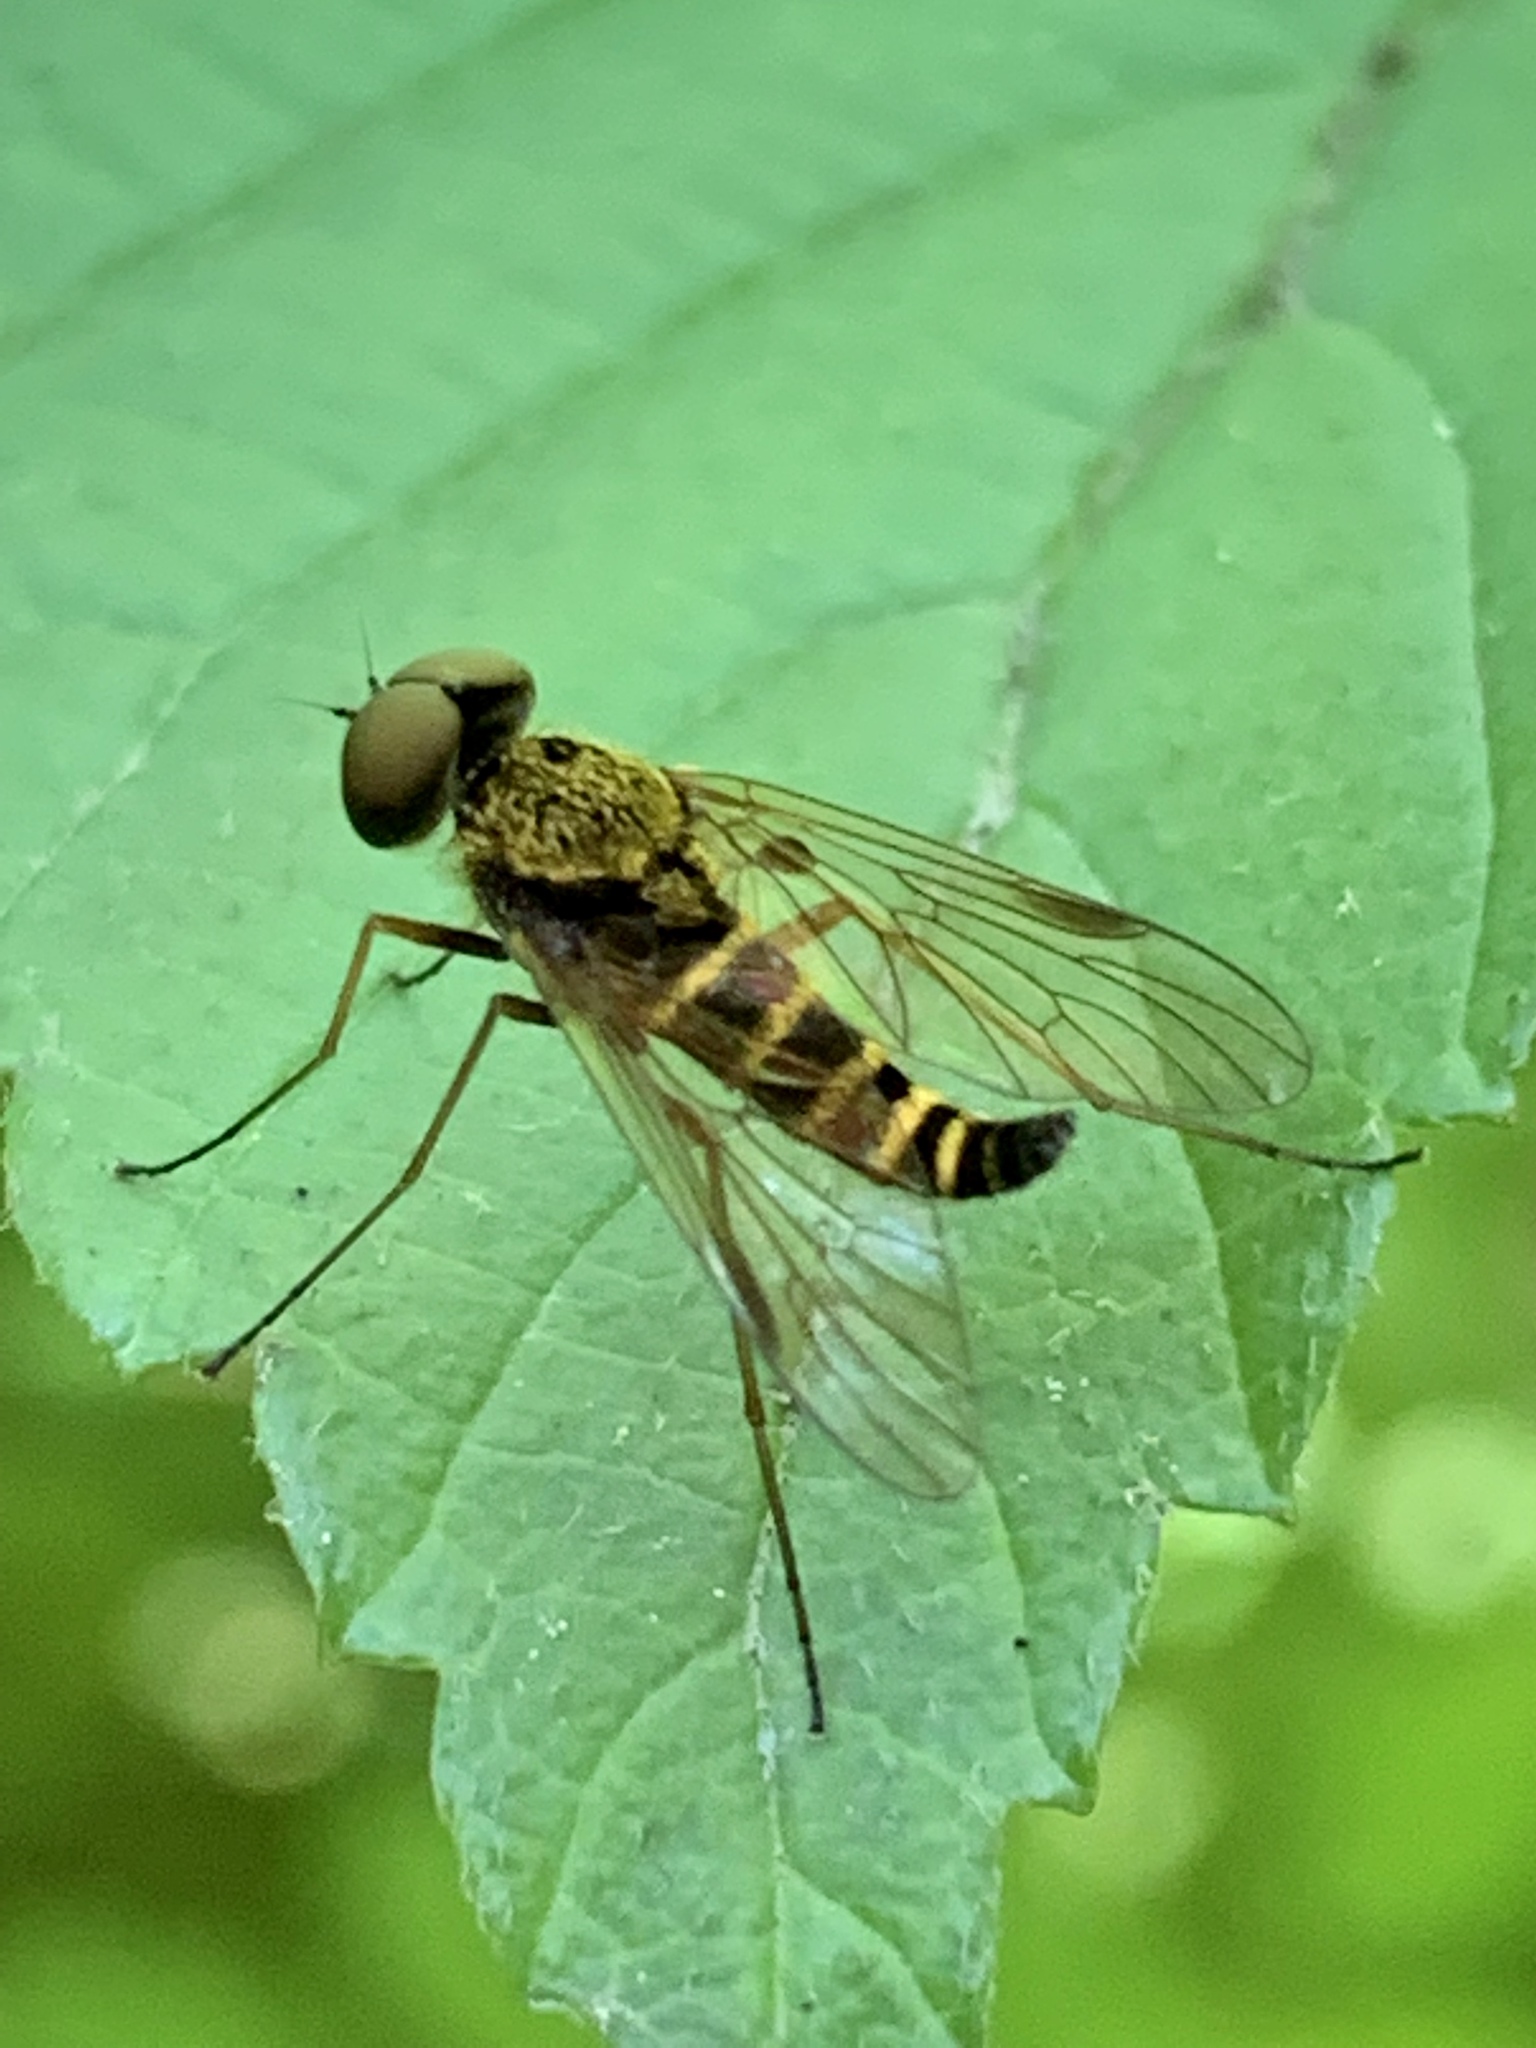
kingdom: Animalia
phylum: Arthropoda
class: Insecta
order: Diptera
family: Rhagionidae
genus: Chrysopilus
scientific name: Chrysopilus fasciatus
